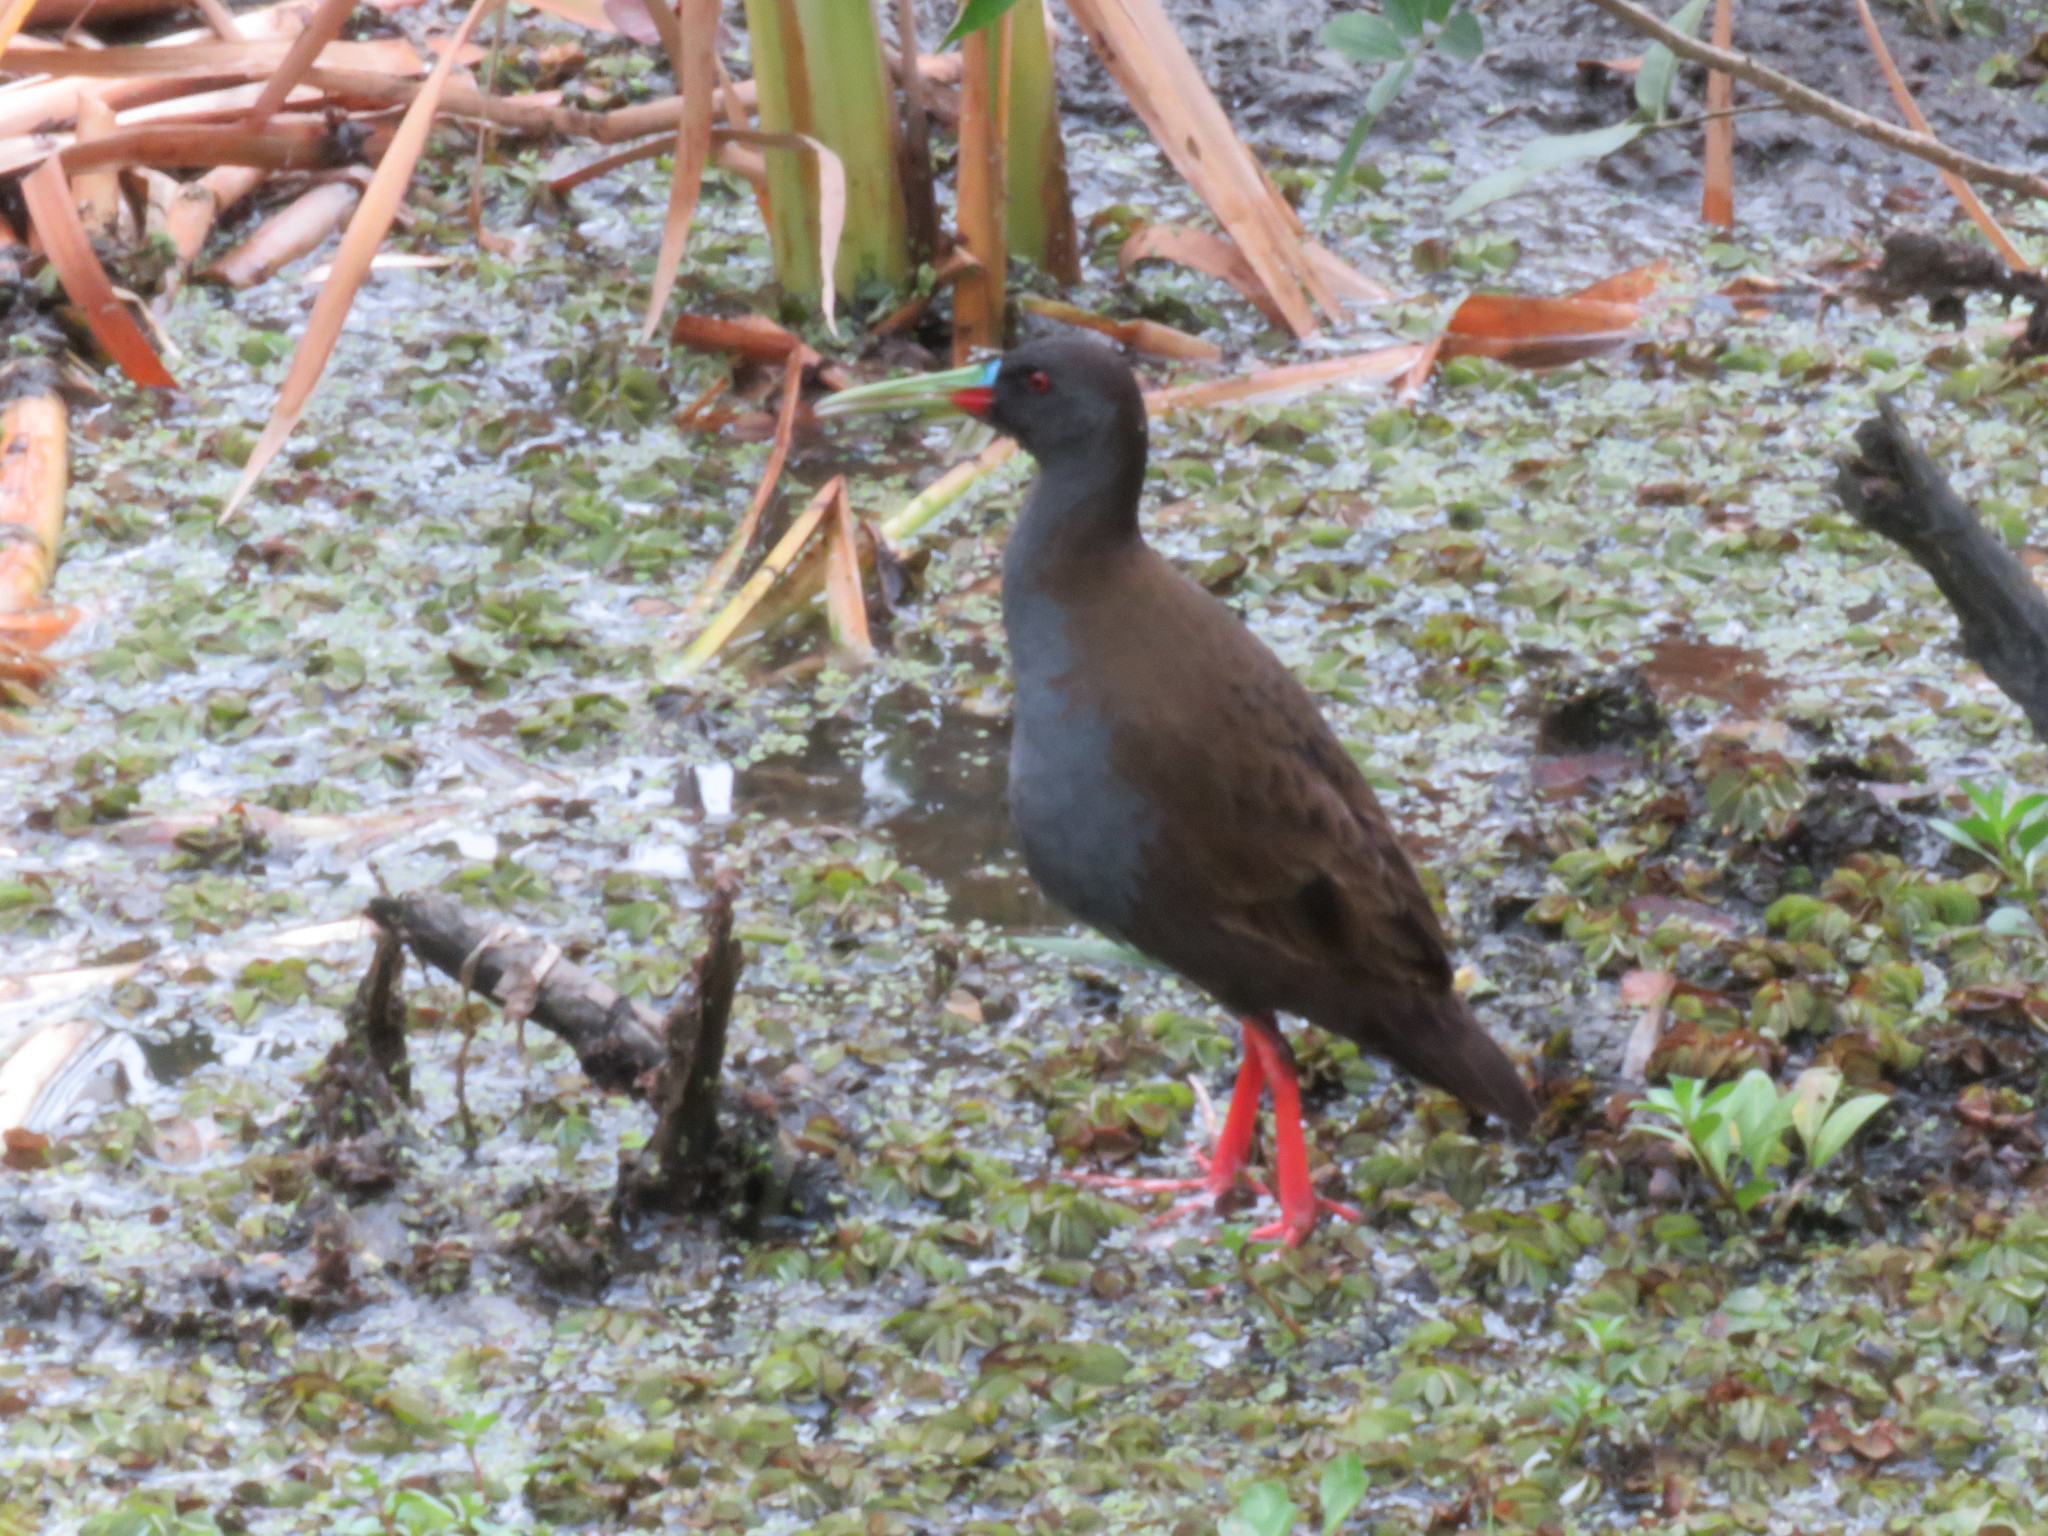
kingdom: Animalia
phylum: Chordata
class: Aves
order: Gruiformes
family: Rallidae
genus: Pardirallus
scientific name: Pardirallus sanguinolentus
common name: Plumbeous rail
